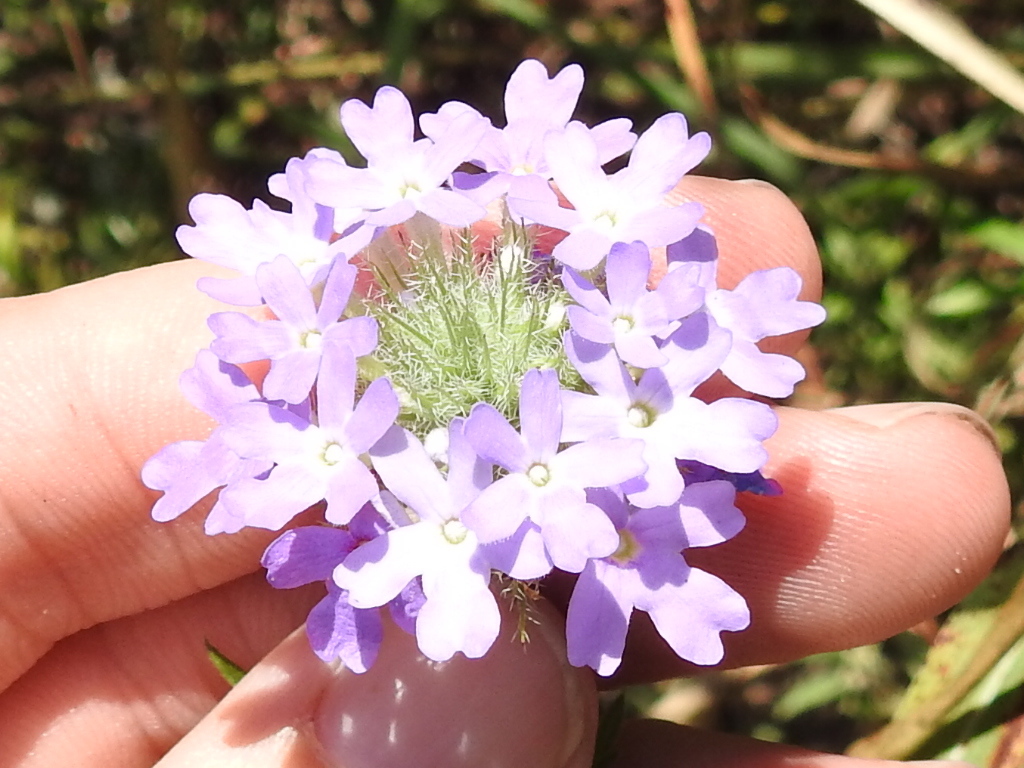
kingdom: Plantae
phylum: Tracheophyta
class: Magnoliopsida
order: Lamiales
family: Verbenaceae
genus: Verbena
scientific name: Verbena bipinnatifida
